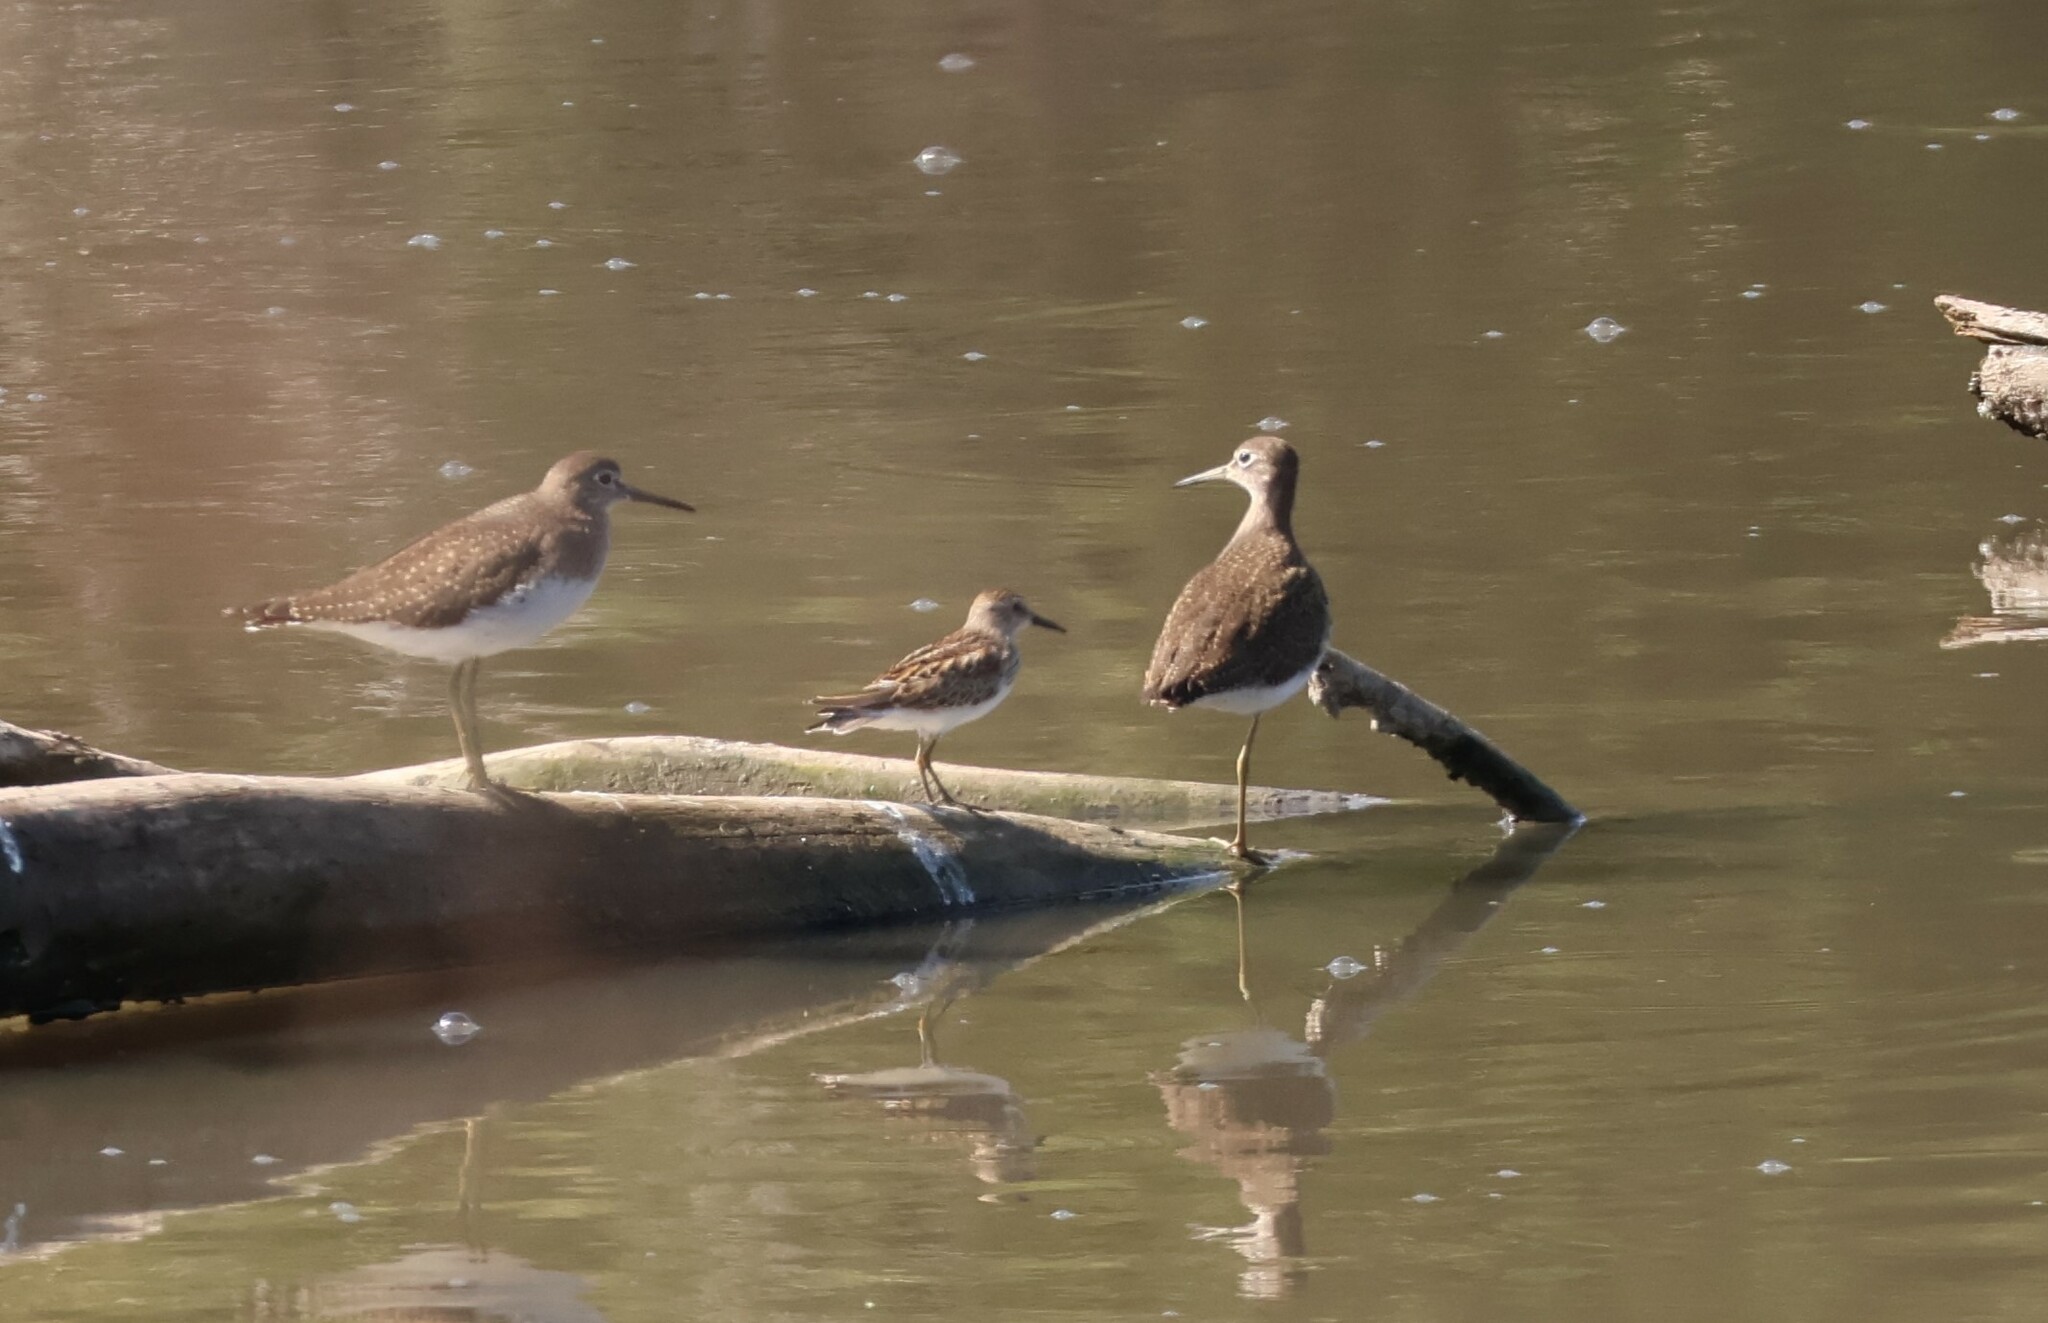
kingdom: Animalia
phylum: Chordata
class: Aves
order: Charadriiformes
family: Scolopacidae
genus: Calidris
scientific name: Calidris minutilla
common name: Least sandpiper
